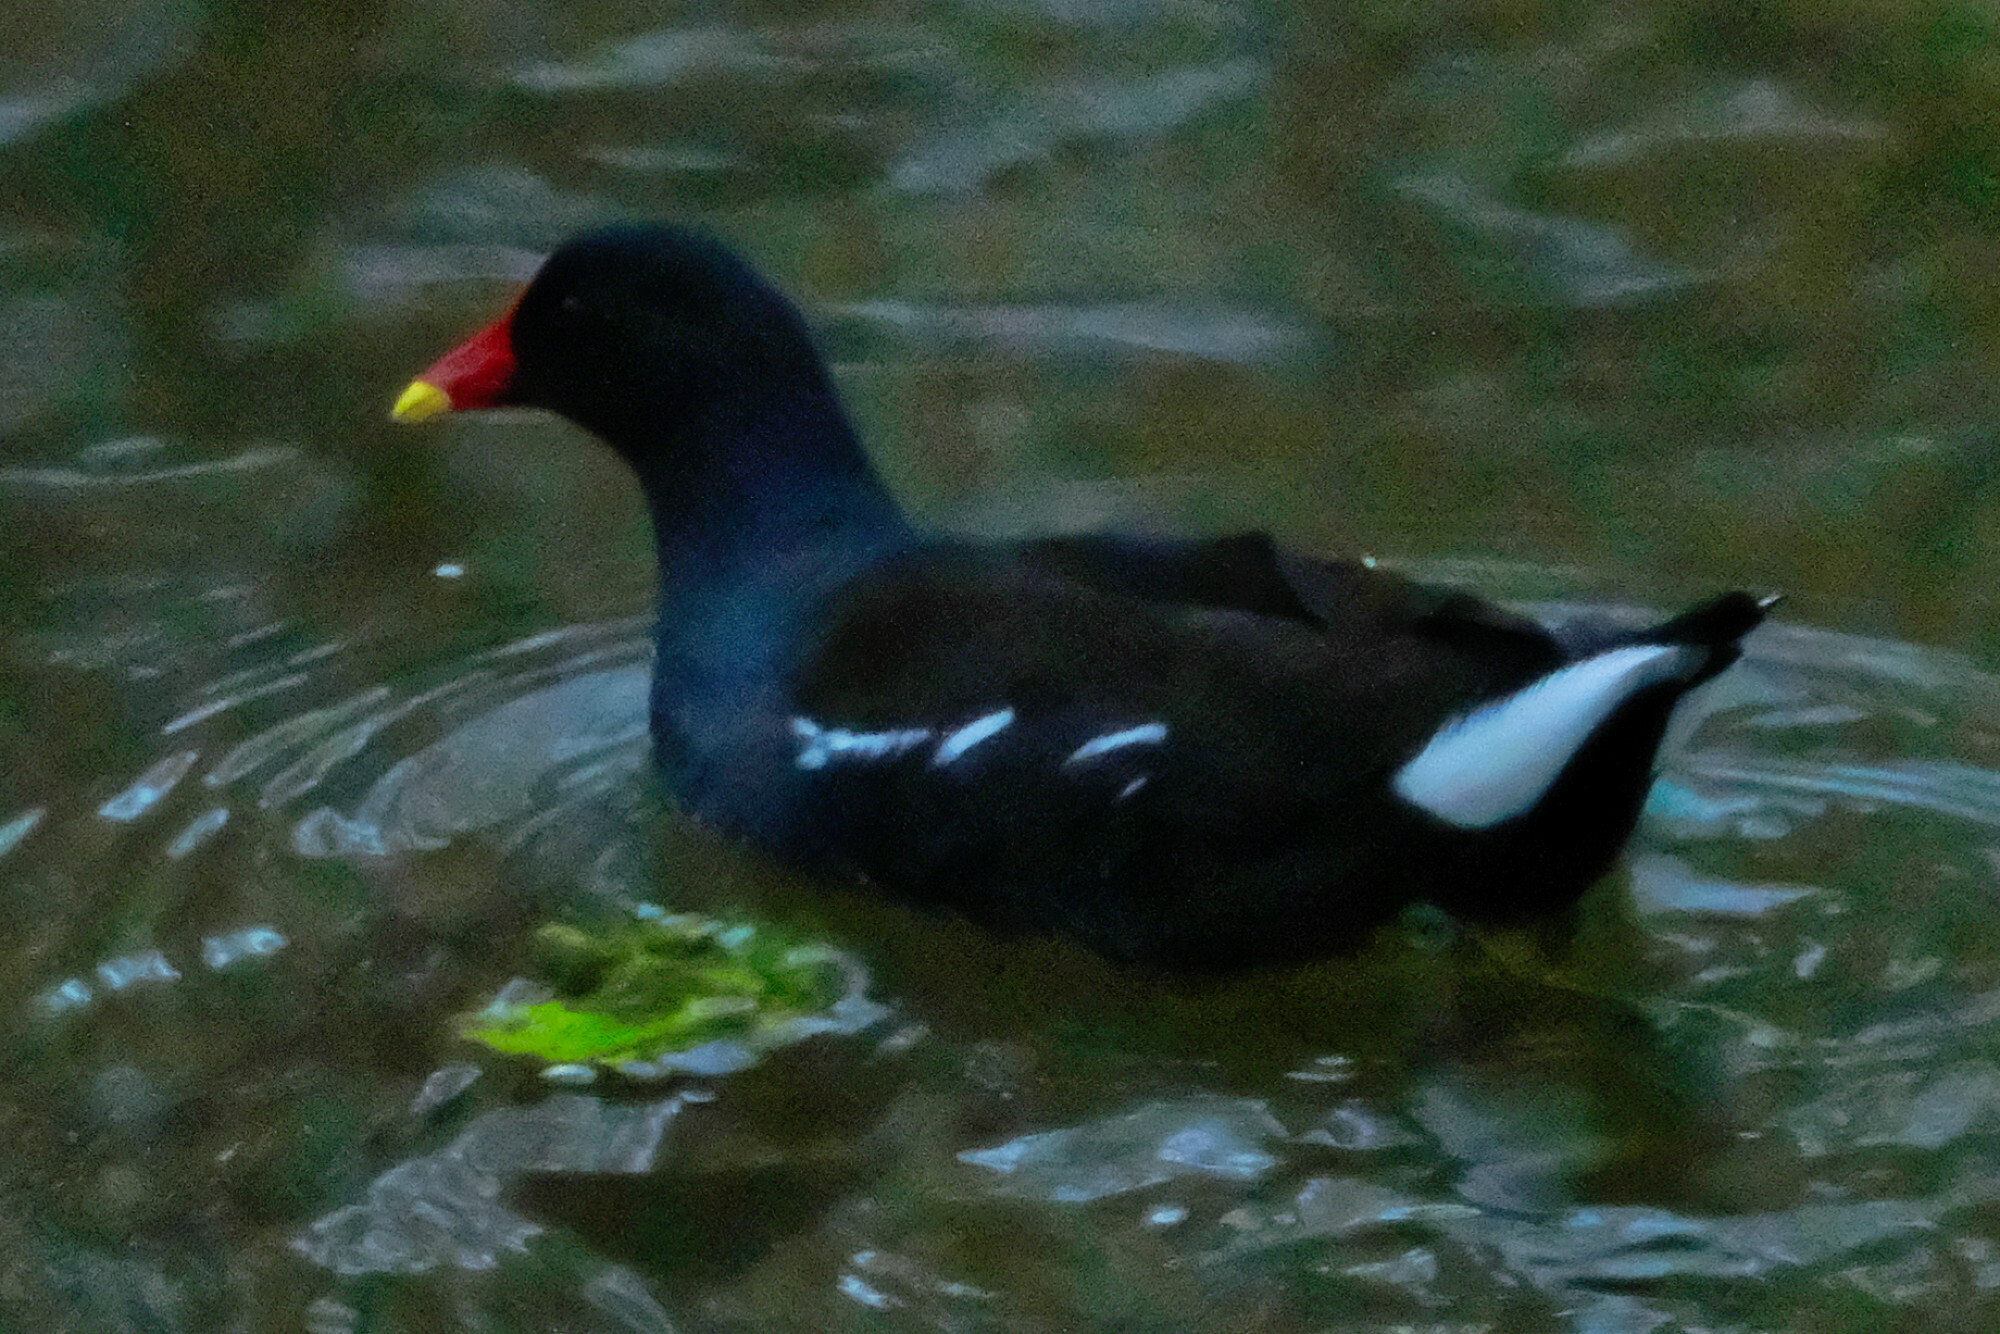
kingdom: Animalia
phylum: Chordata
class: Aves
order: Gruiformes
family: Rallidae
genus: Gallinula
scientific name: Gallinula chloropus
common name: Common moorhen
